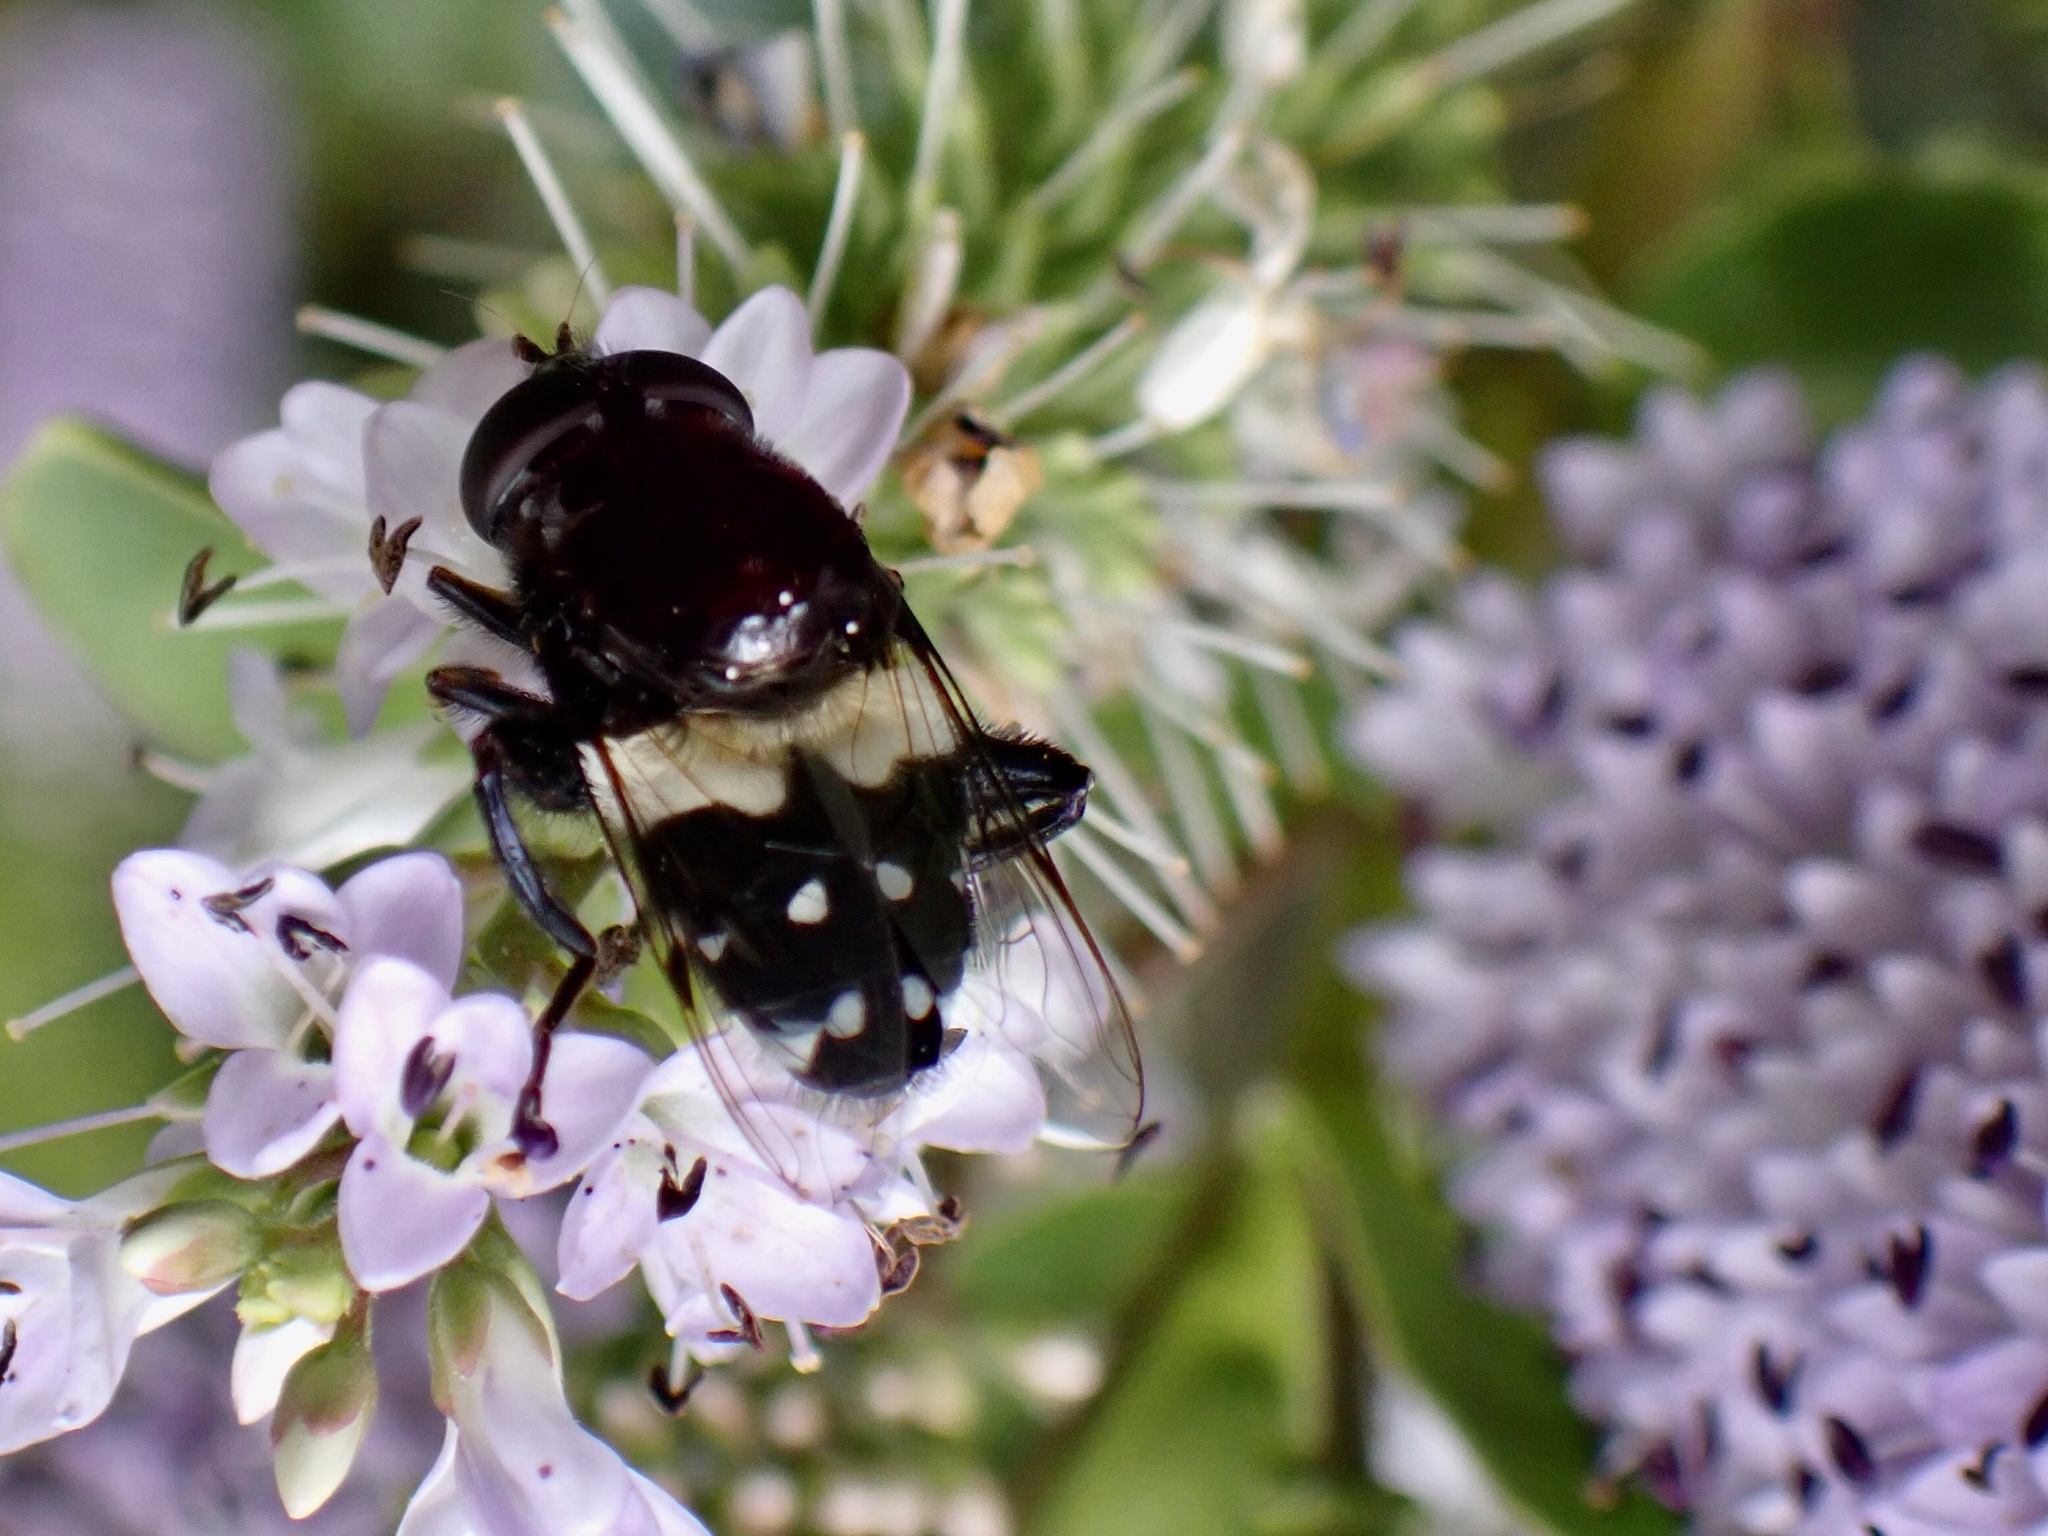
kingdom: Animalia
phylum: Arthropoda
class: Insecta
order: Diptera
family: Syrphidae
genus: Helophilus
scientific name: Helophilus cingulatus
